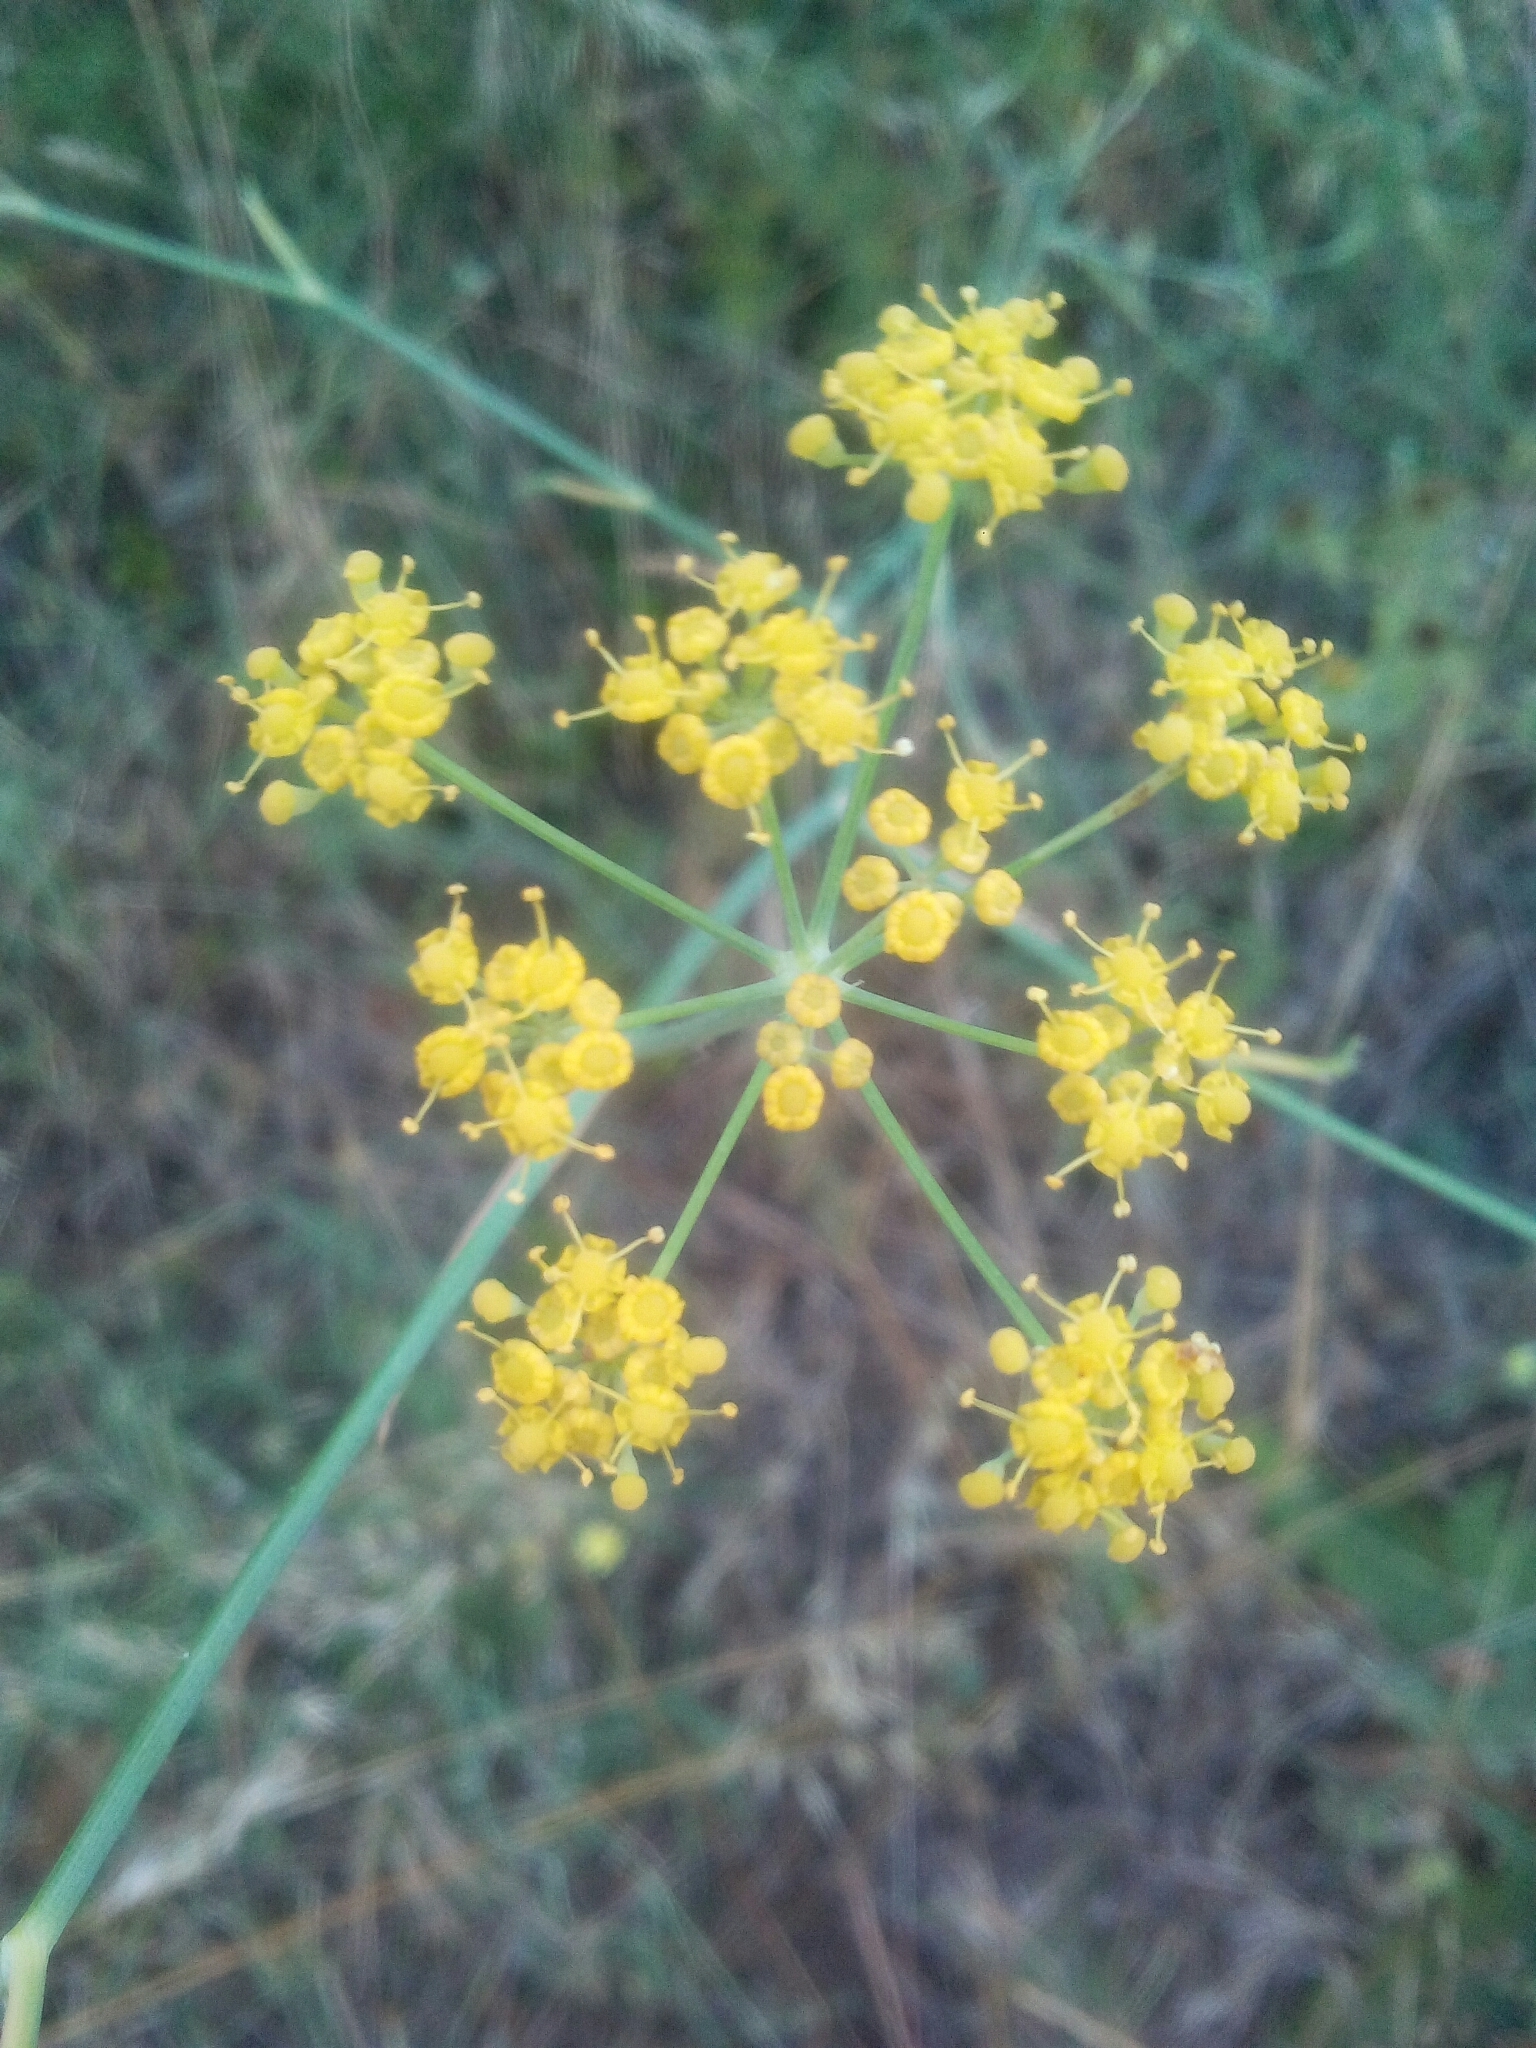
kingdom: Plantae
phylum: Tracheophyta
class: Magnoliopsida
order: Apiales
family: Apiaceae
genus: Foeniculum
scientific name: Foeniculum vulgare
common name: Fennel
